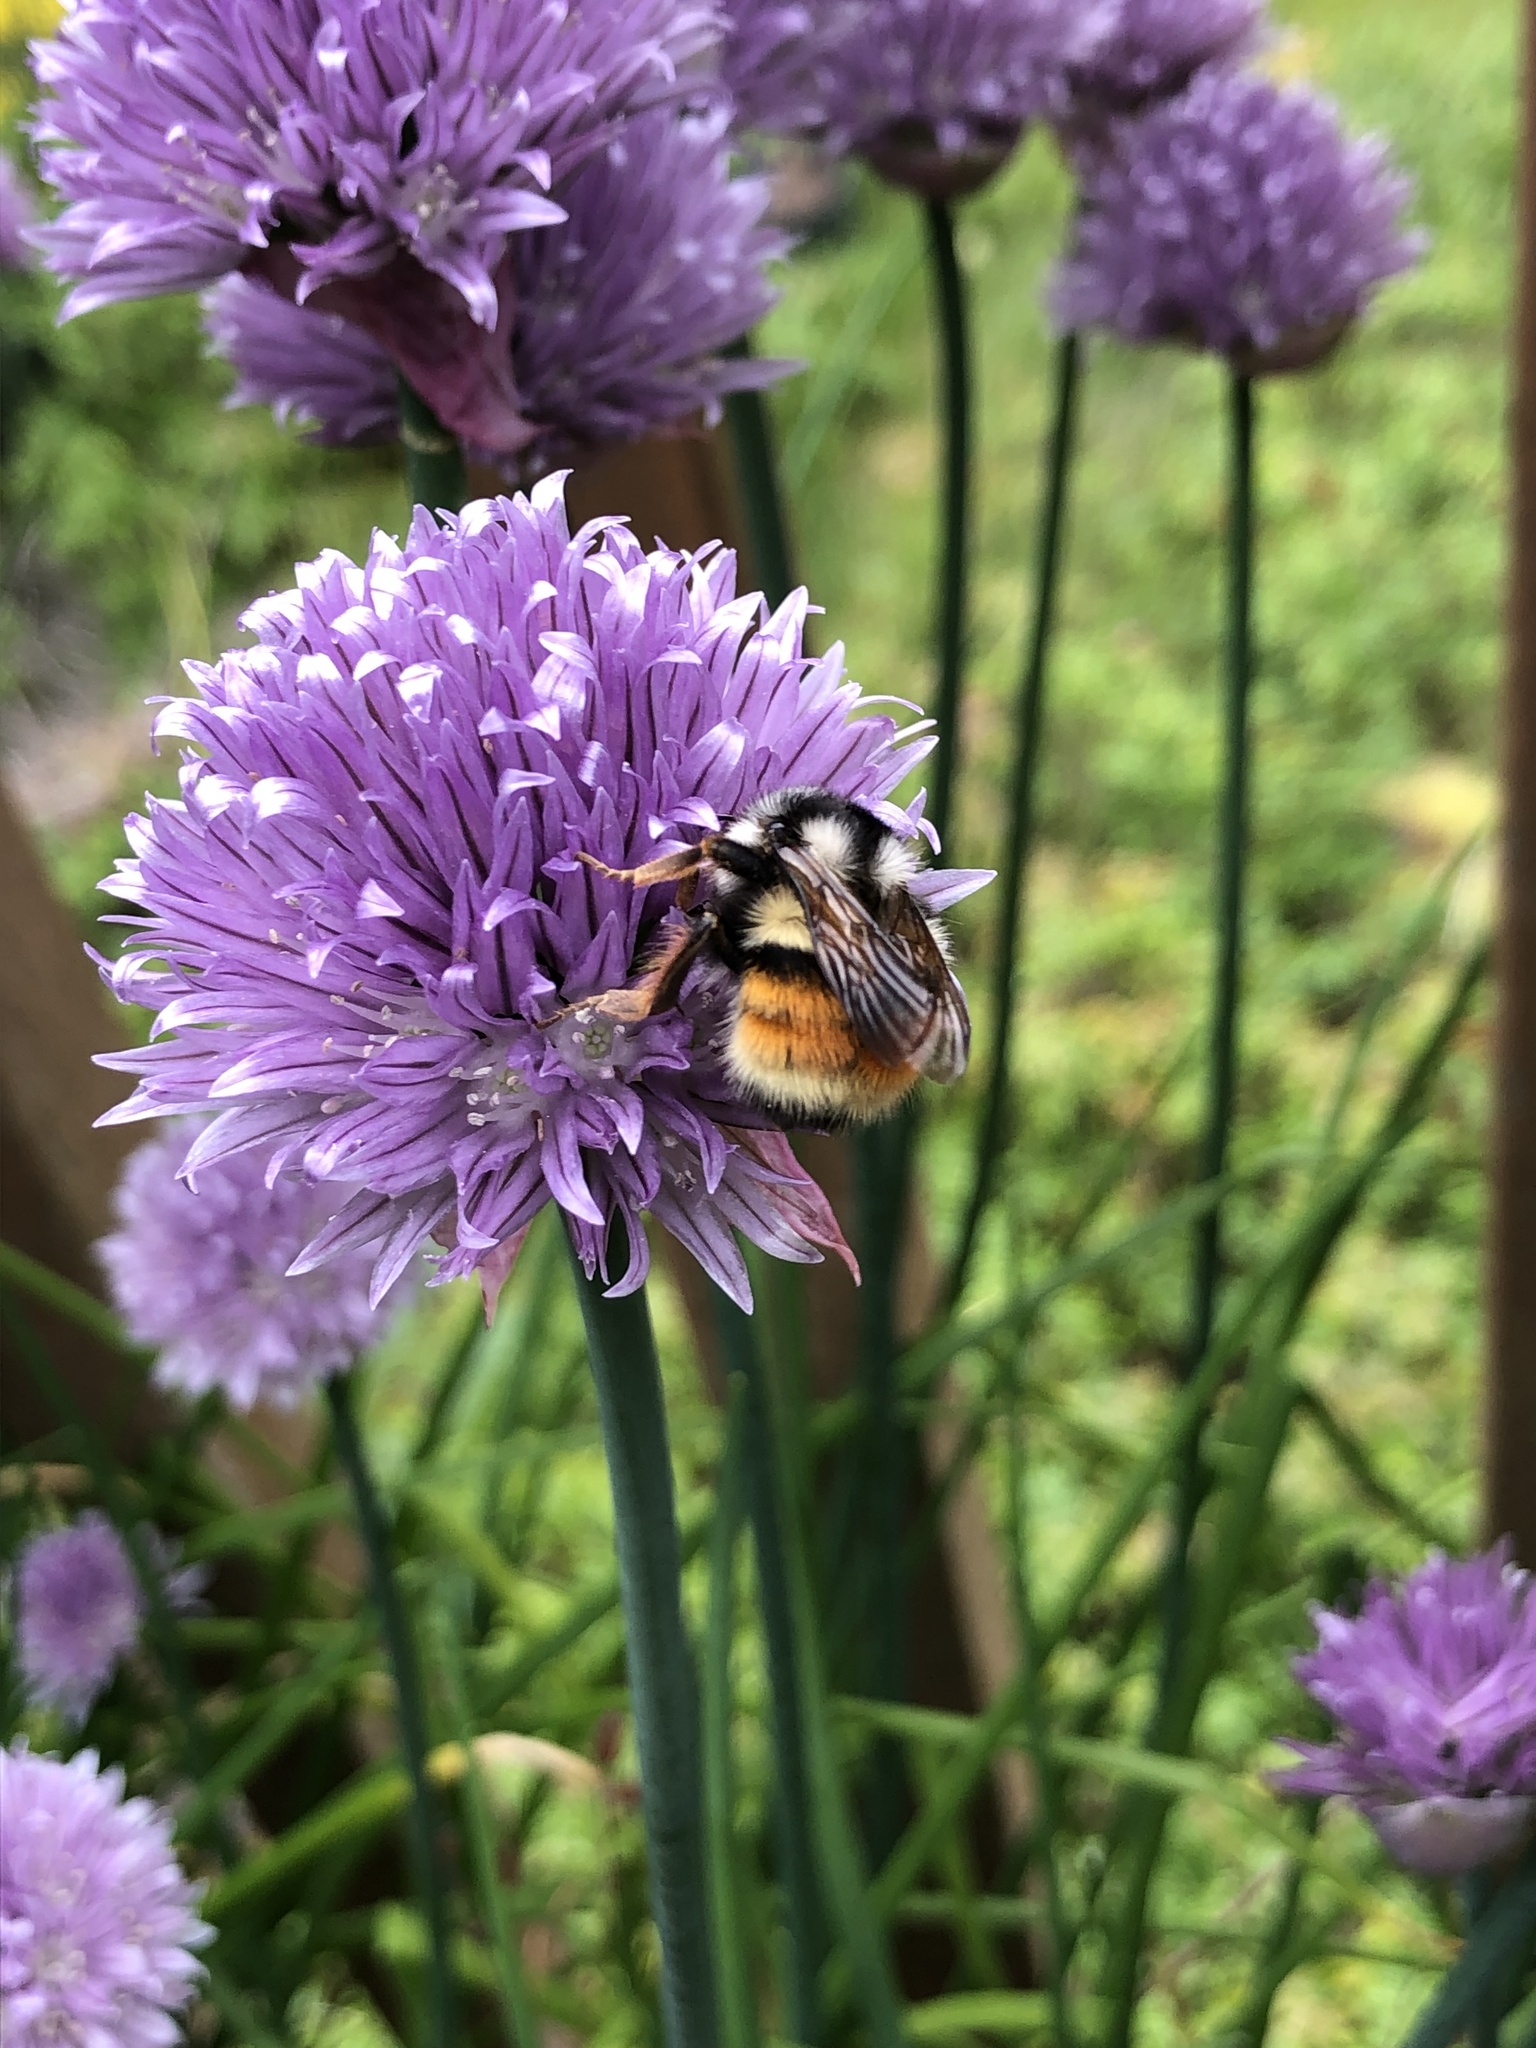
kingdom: Animalia
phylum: Arthropoda
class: Insecta
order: Hymenoptera
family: Apidae
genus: Bombus
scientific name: Bombus vancouverensis
